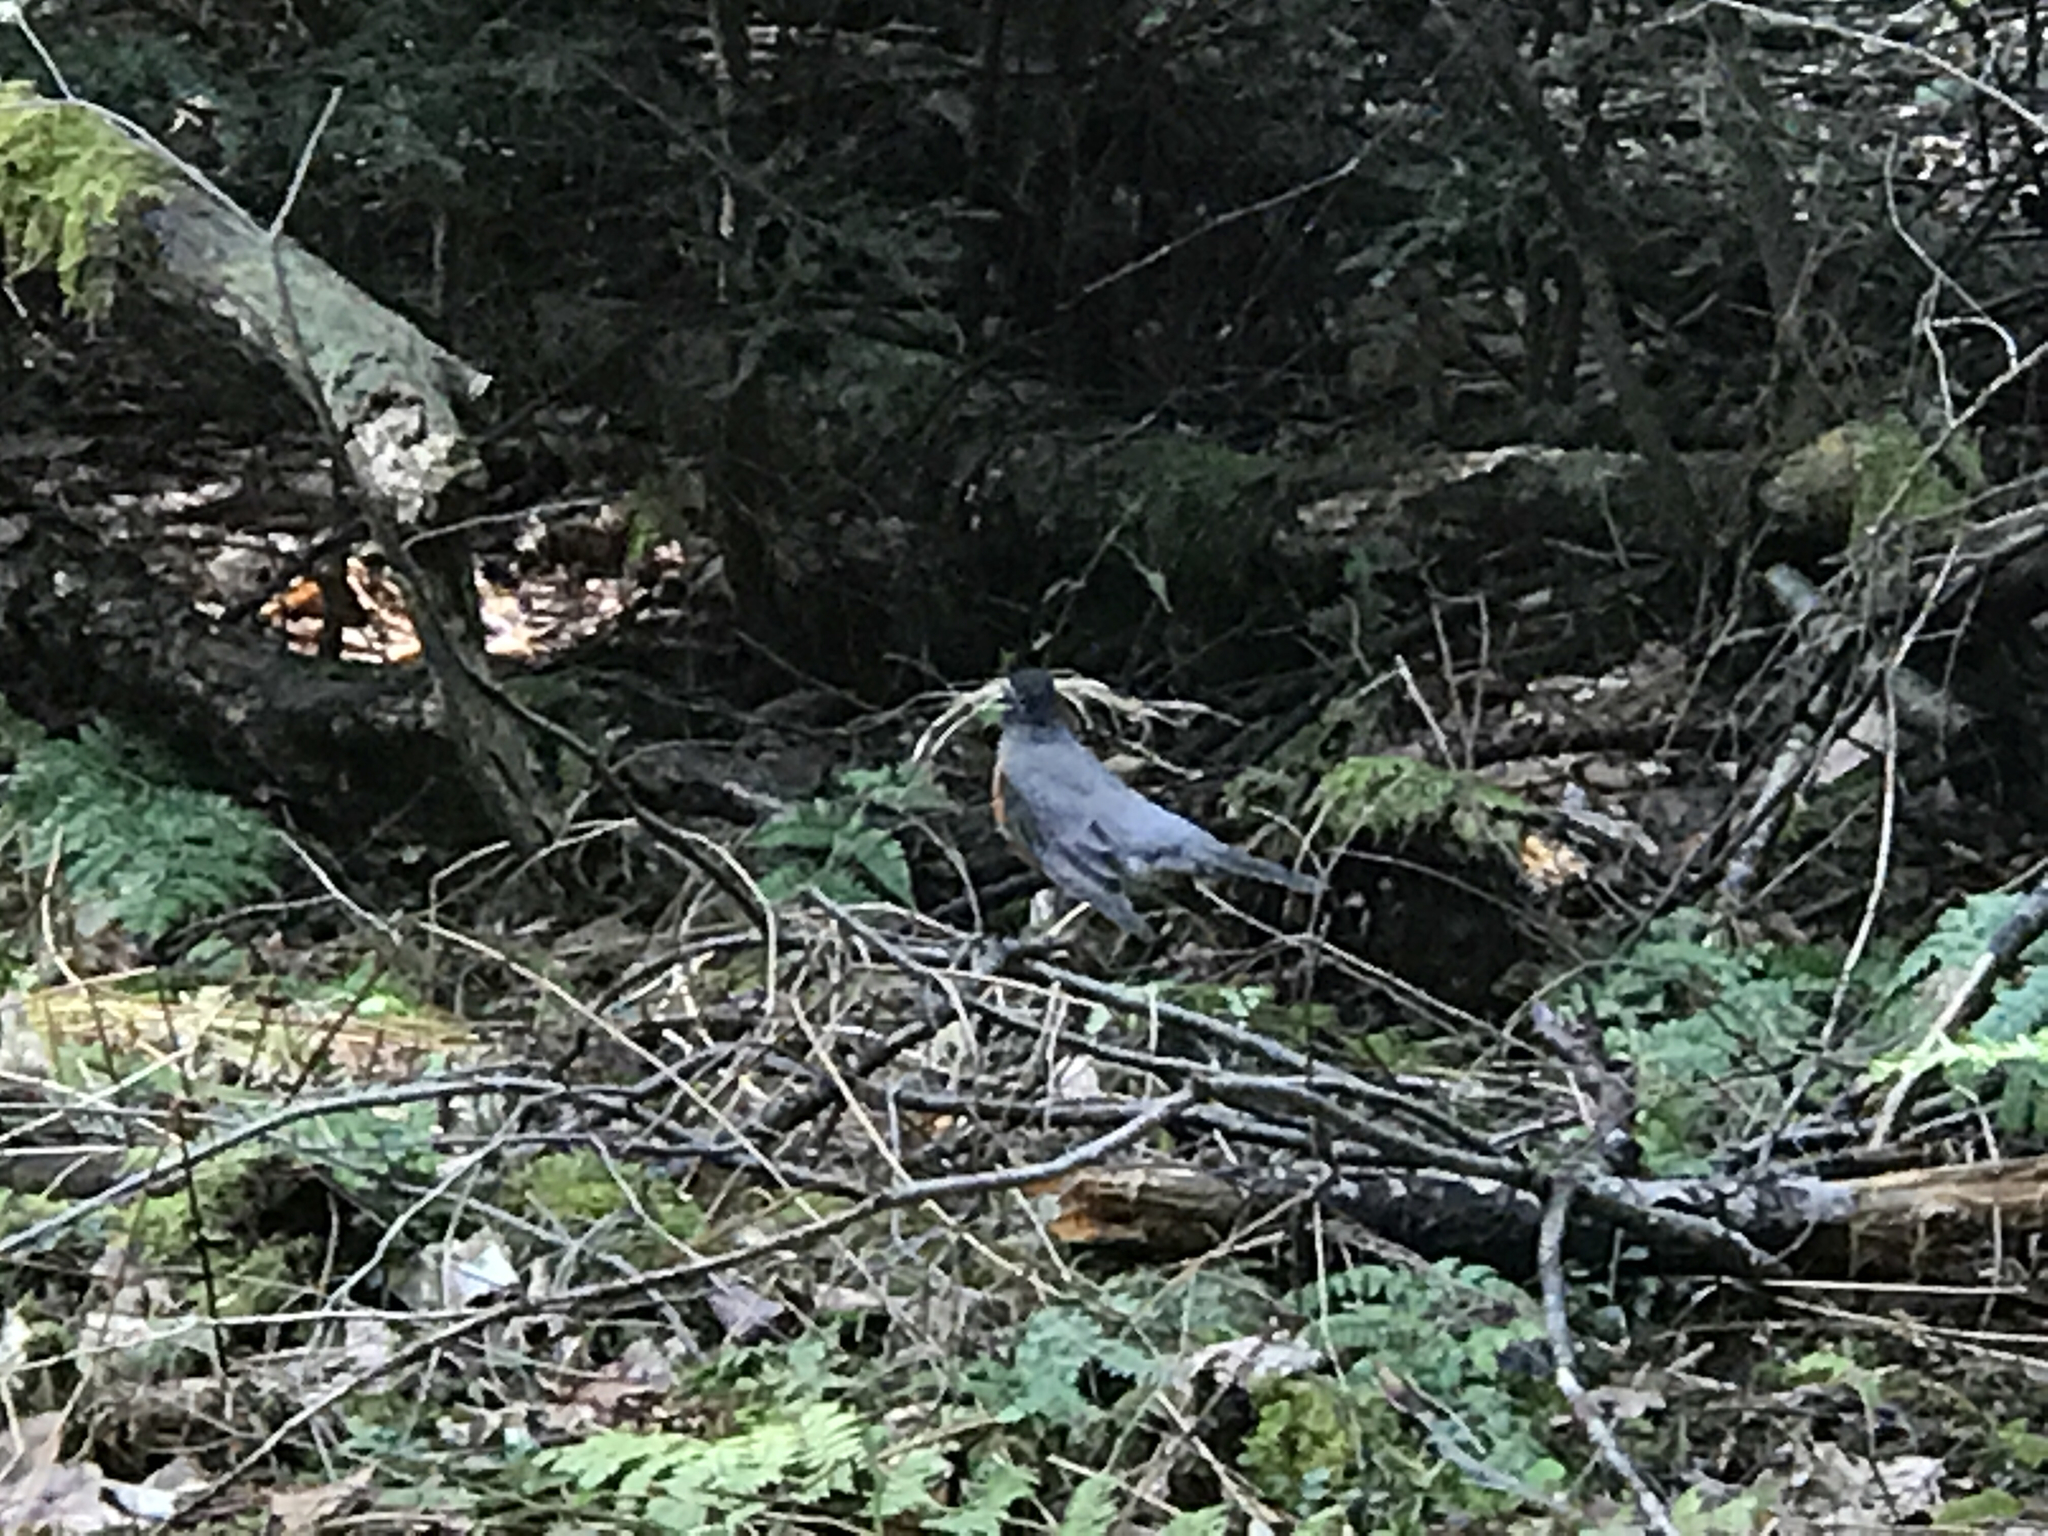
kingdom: Animalia
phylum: Chordata
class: Aves
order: Passeriformes
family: Turdidae
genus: Turdus
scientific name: Turdus migratorius
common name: American robin
